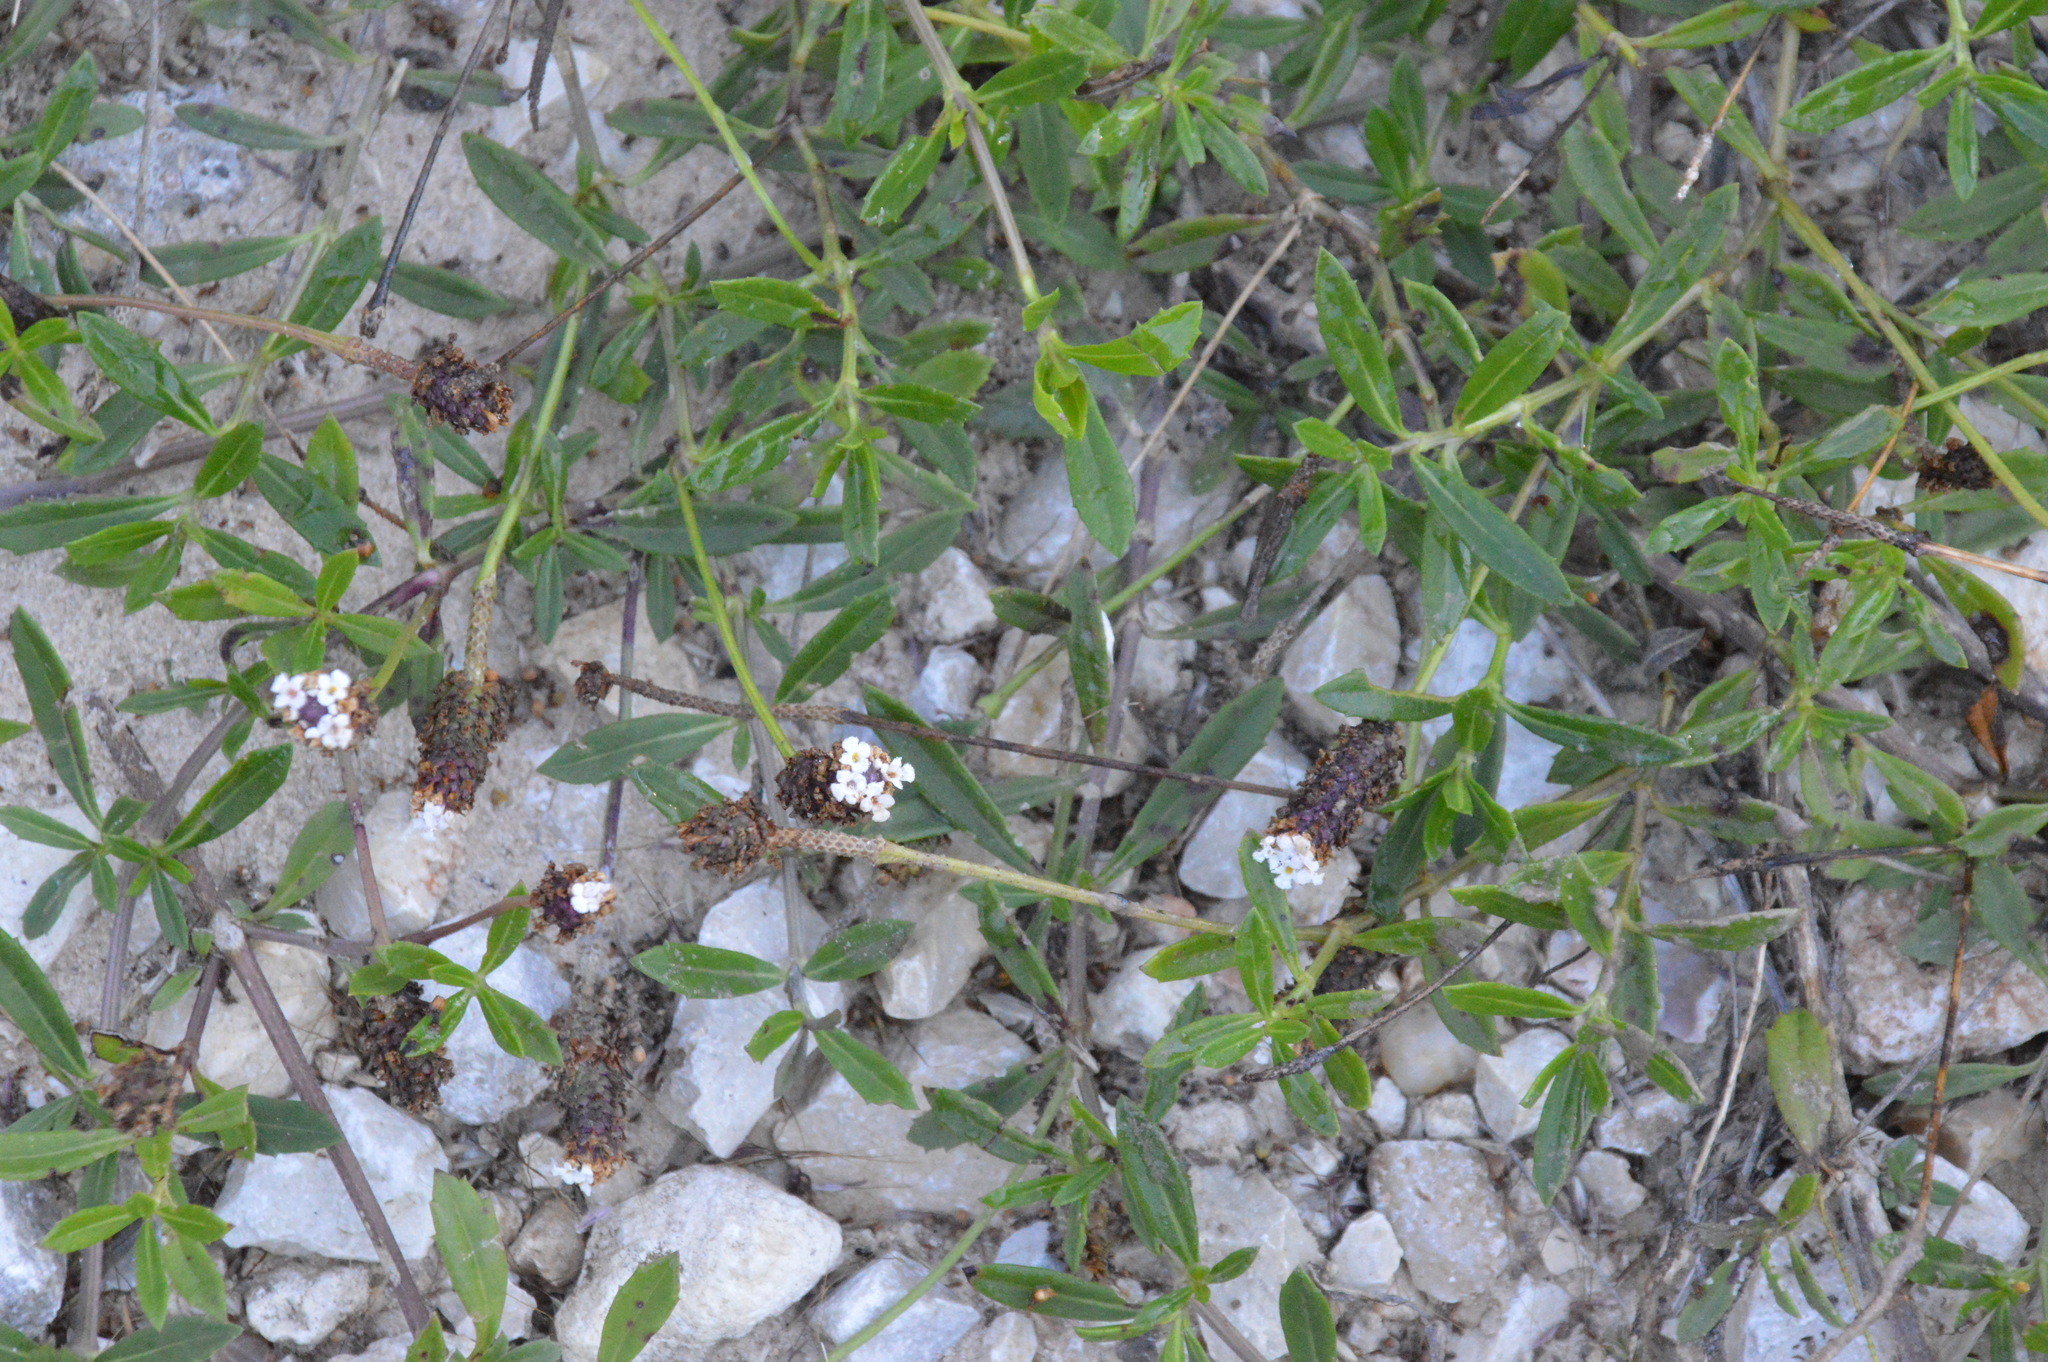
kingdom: Plantae
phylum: Tracheophyta
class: Magnoliopsida
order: Lamiales
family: Verbenaceae
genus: Phyla
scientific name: Phyla nodiflora
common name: Frogfruit
